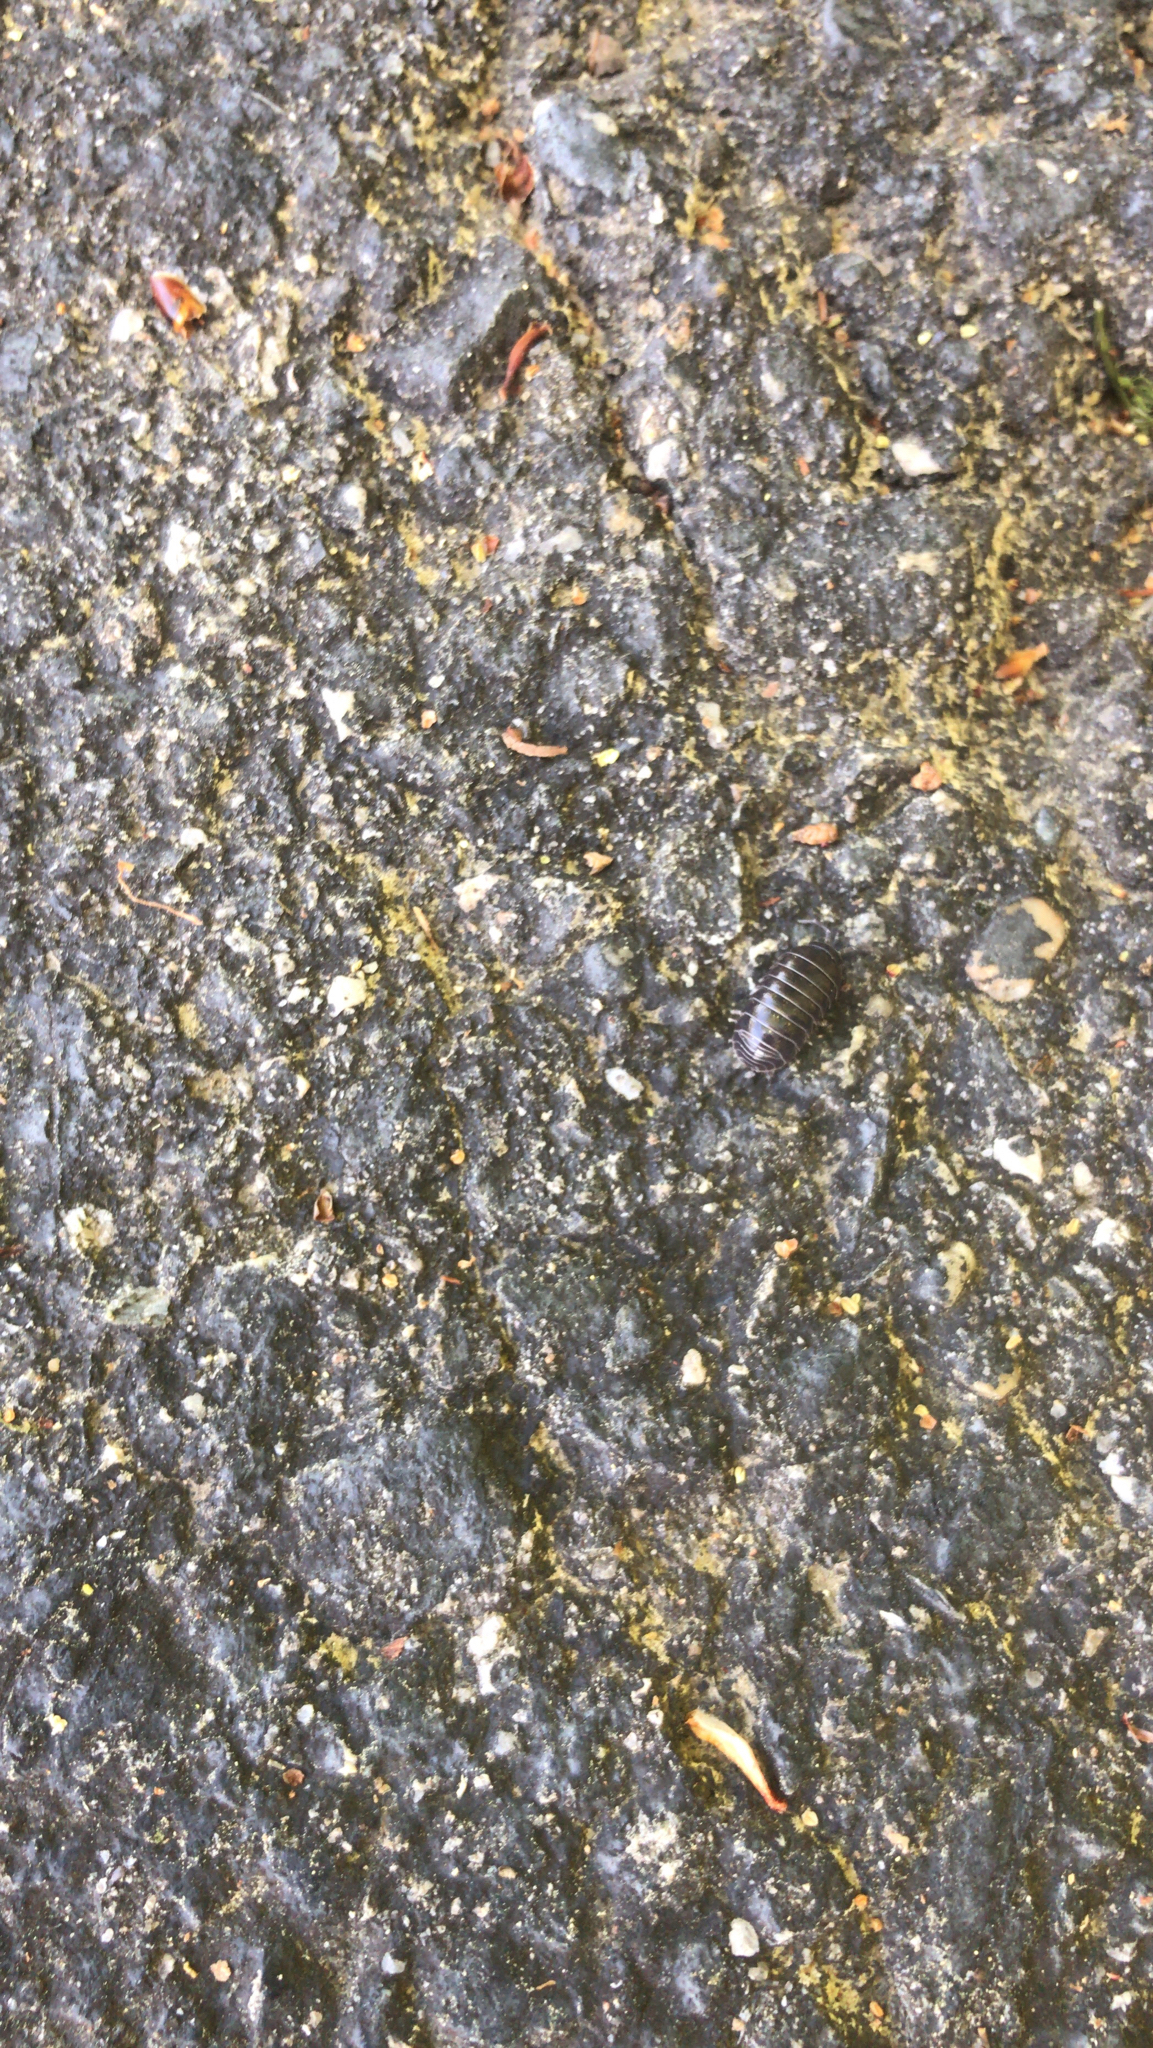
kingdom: Animalia
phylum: Arthropoda
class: Malacostraca
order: Isopoda
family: Armadillidiidae
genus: Armadillidium
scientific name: Armadillidium vulgare
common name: Common pill woodlouse
